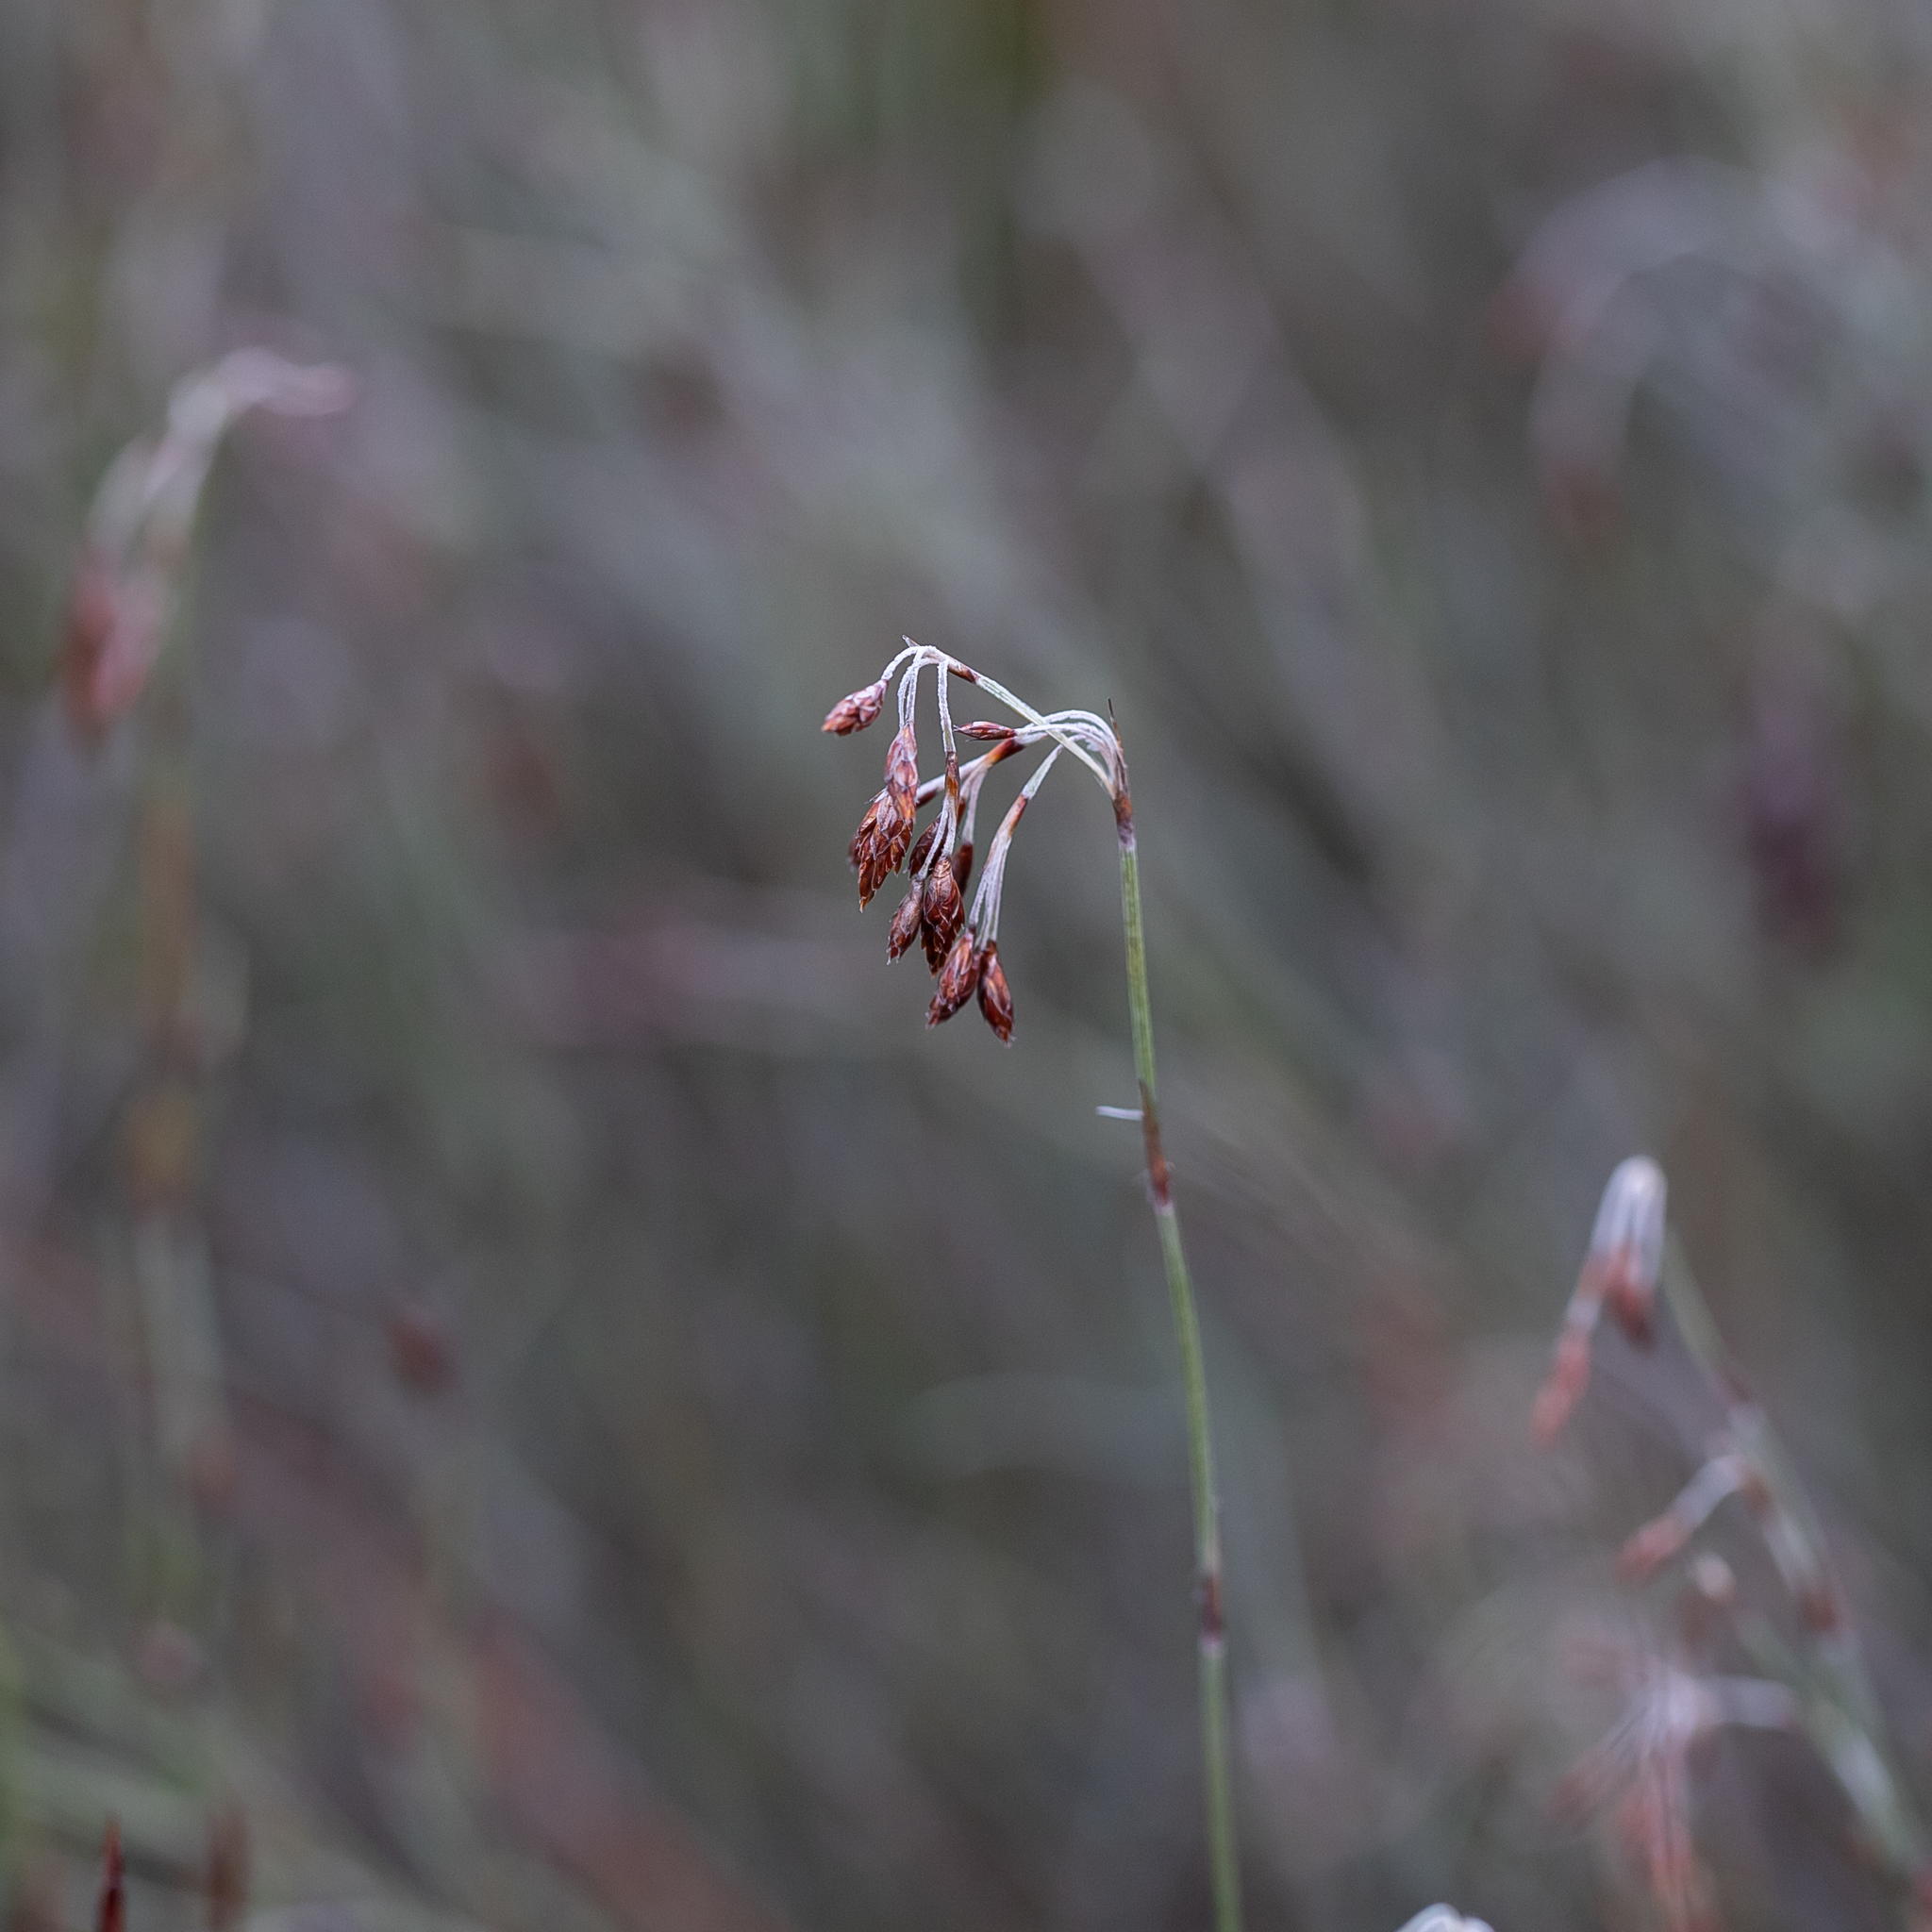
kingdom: Plantae
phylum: Tracheophyta
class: Liliopsida
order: Poales
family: Restionaceae
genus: Hypolaena
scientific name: Hypolaena fastigiata
